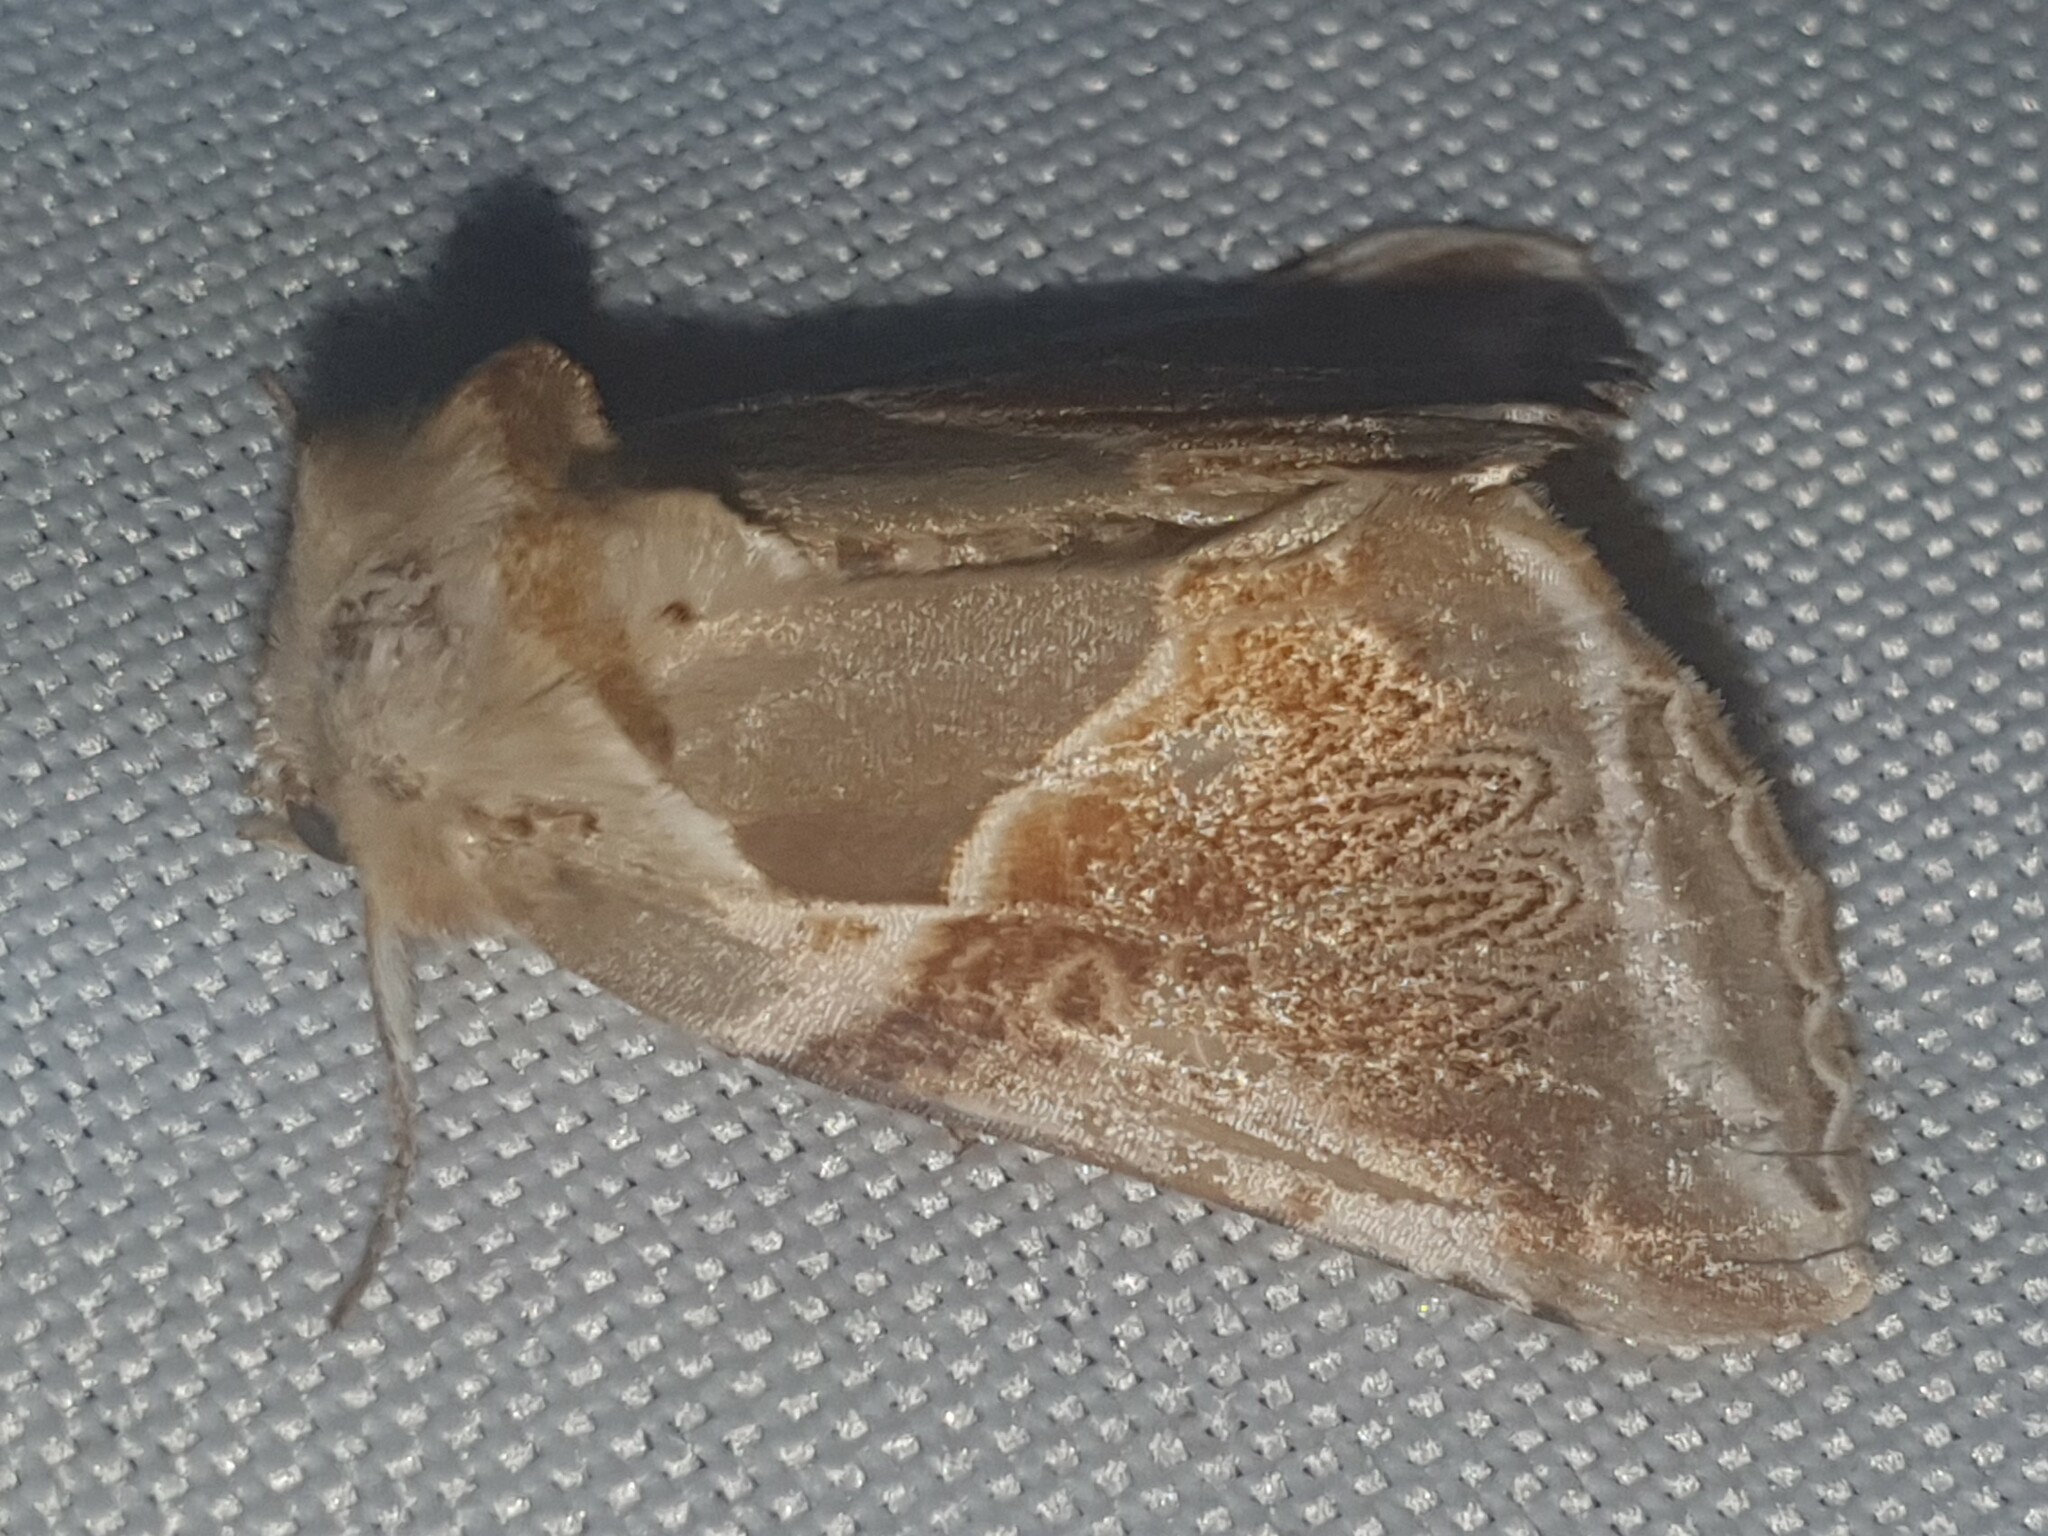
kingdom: Animalia
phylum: Arthropoda
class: Insecta
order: Lepidoptera
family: Drepanidae
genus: Habrosyne
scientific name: Habrosyne pyritoides
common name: Buff arches
